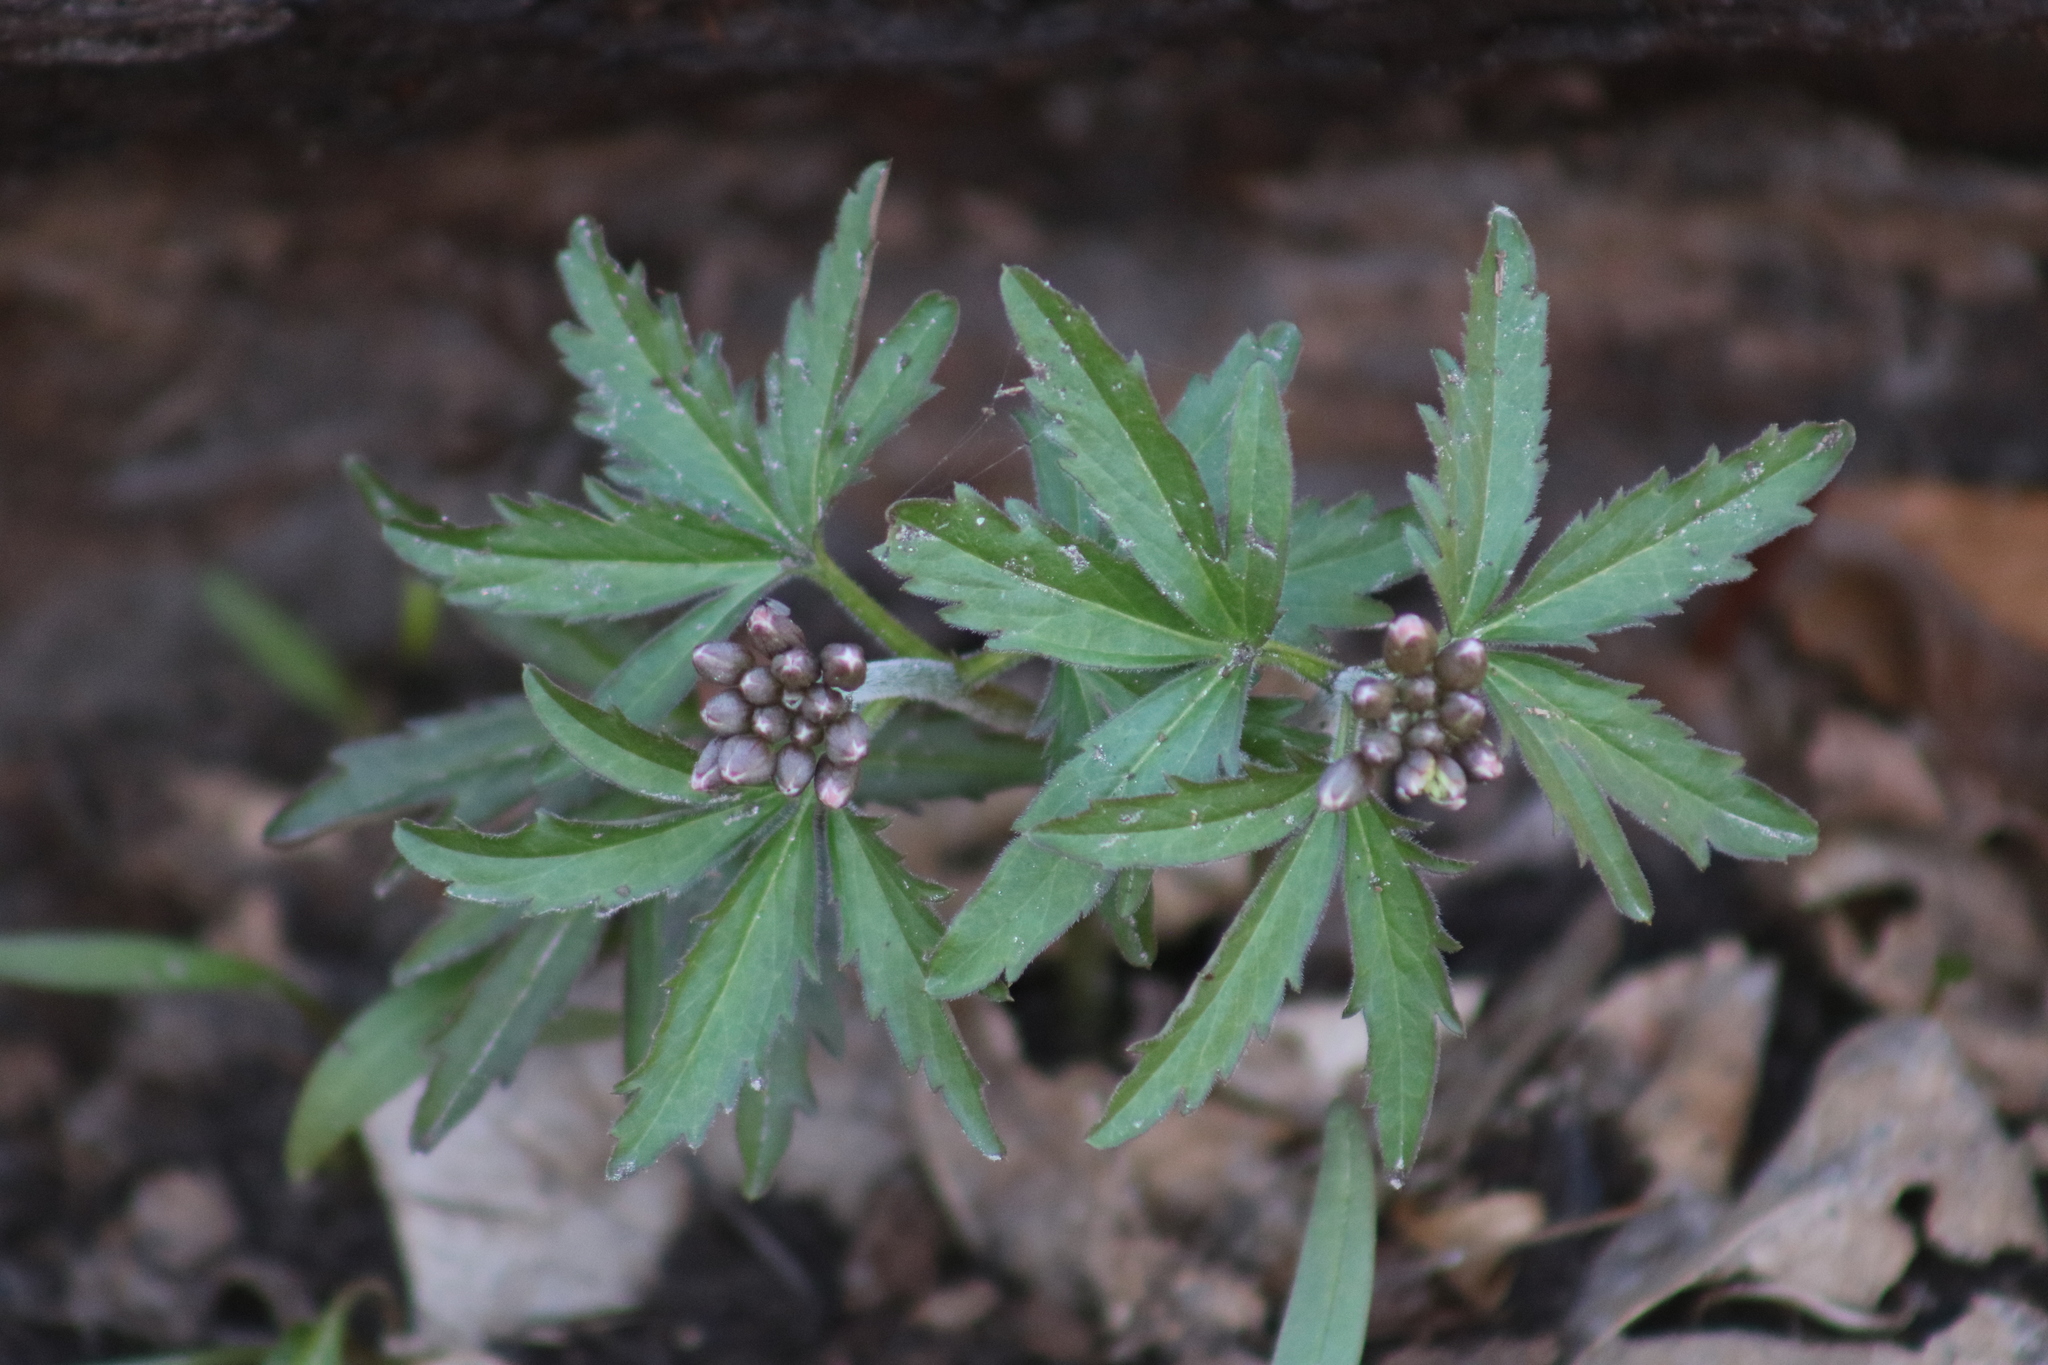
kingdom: Plantae
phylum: Tracheophyta
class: Magnoliopsida
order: Brassicales
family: Brassicaceae
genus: Cardamine
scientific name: Cardamine concatenata
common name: Cut-leaf toothcup
